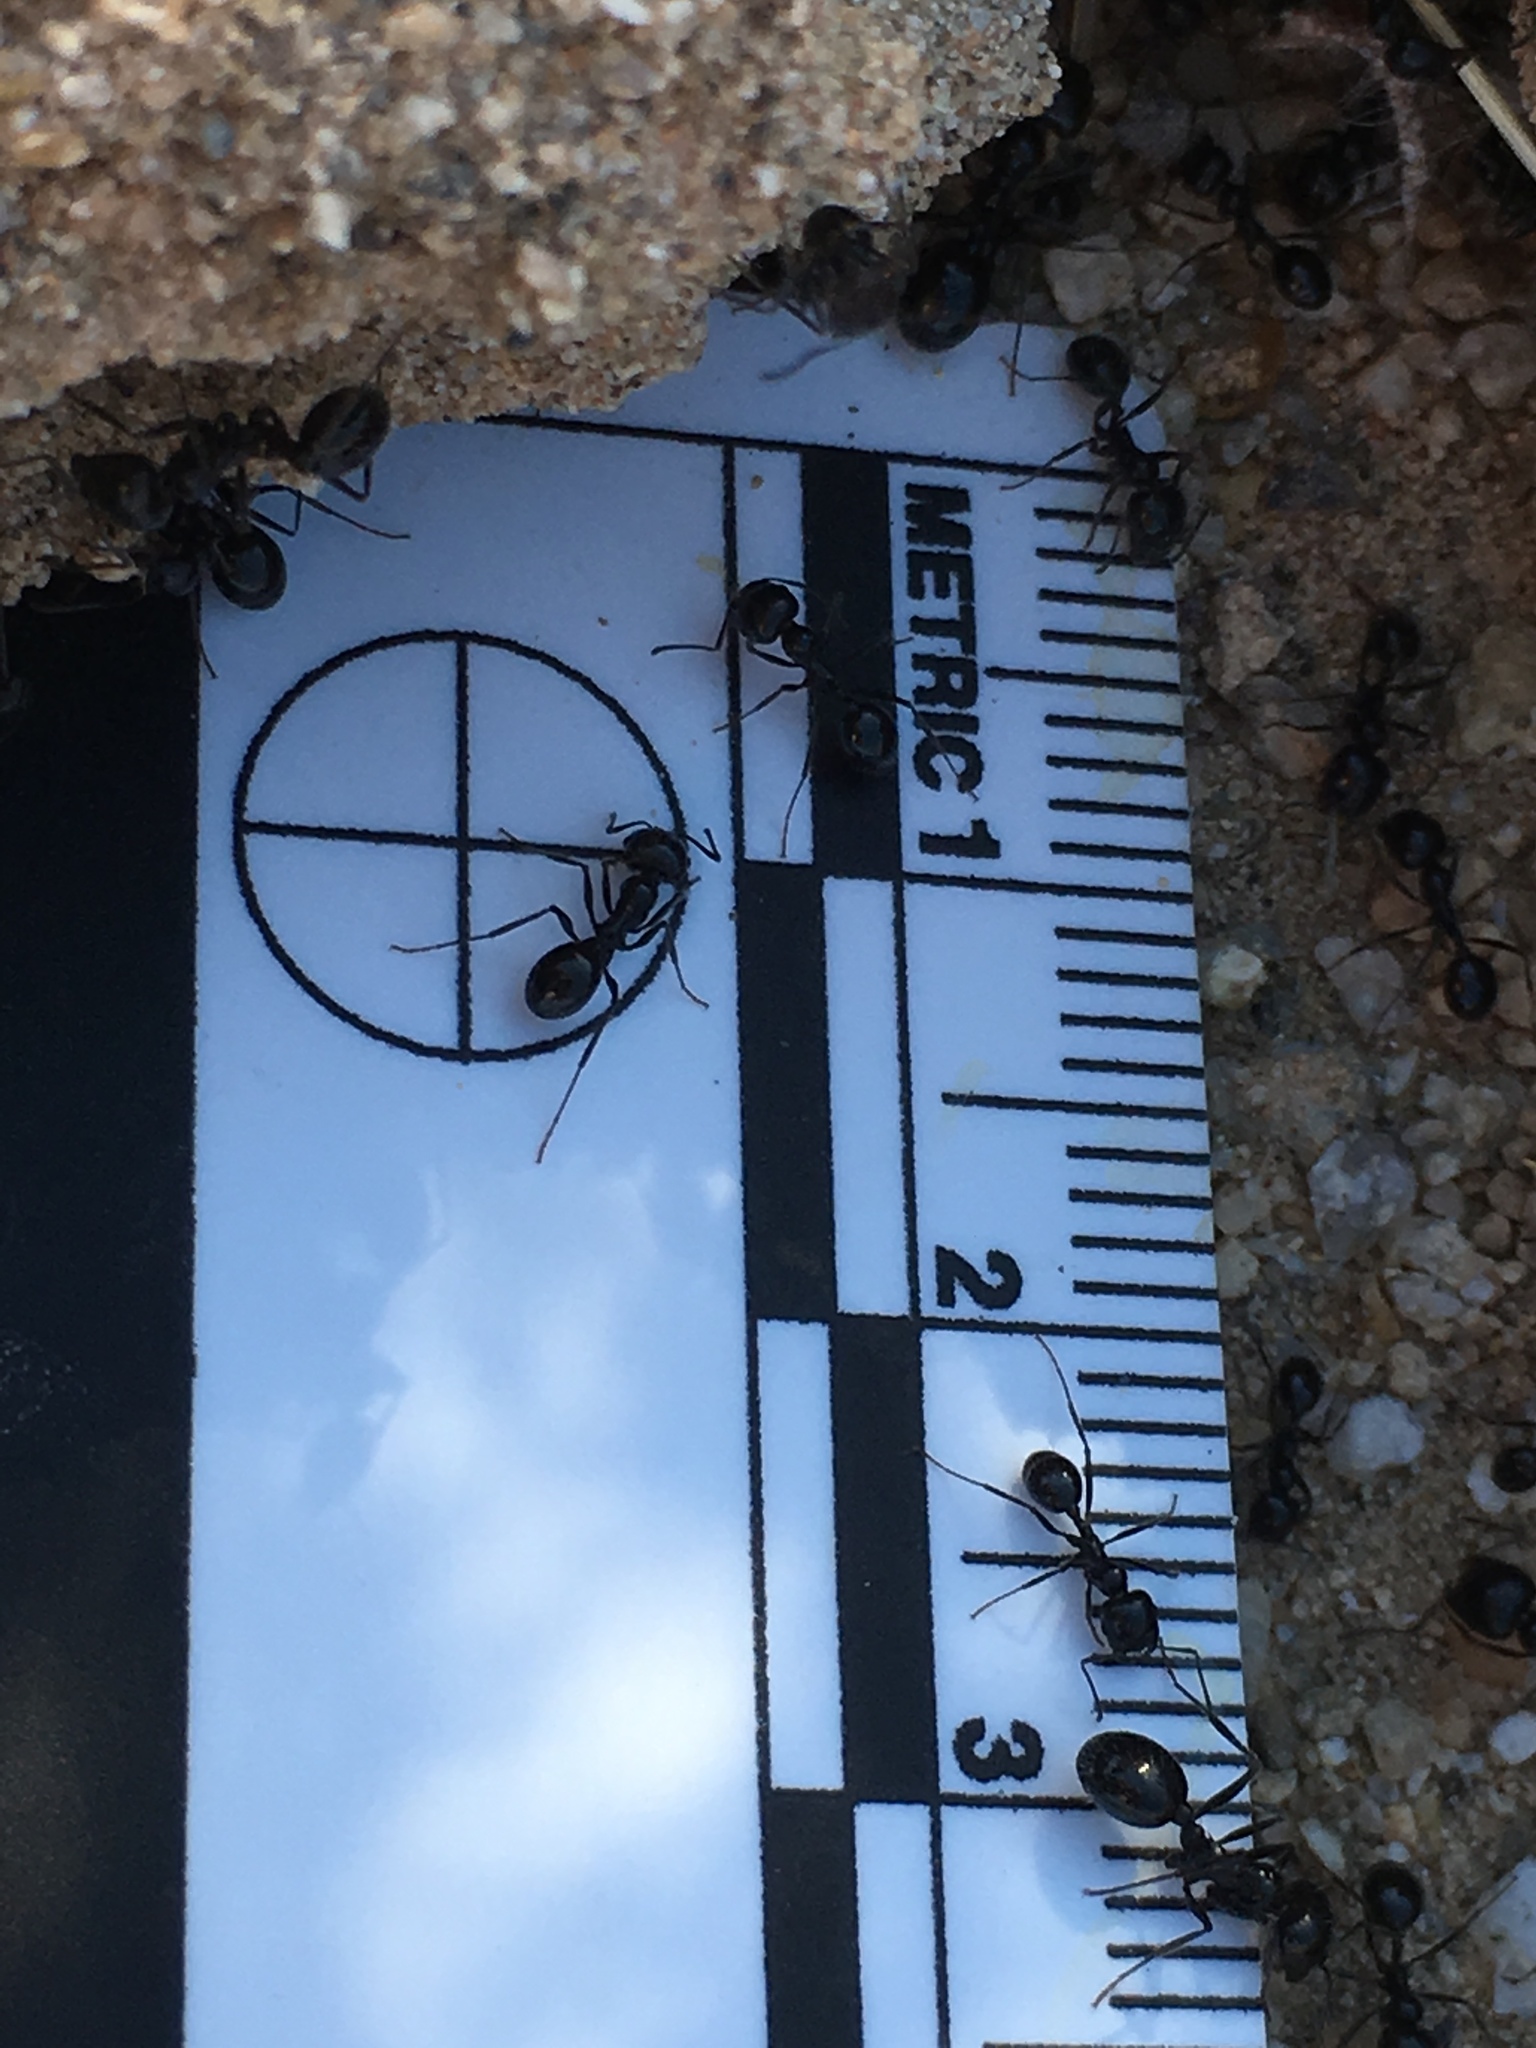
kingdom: Animalia
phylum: Arthropoda
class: Insecta
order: Hymenoptera
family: Formicidae
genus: Messor
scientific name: Messor pergandei
